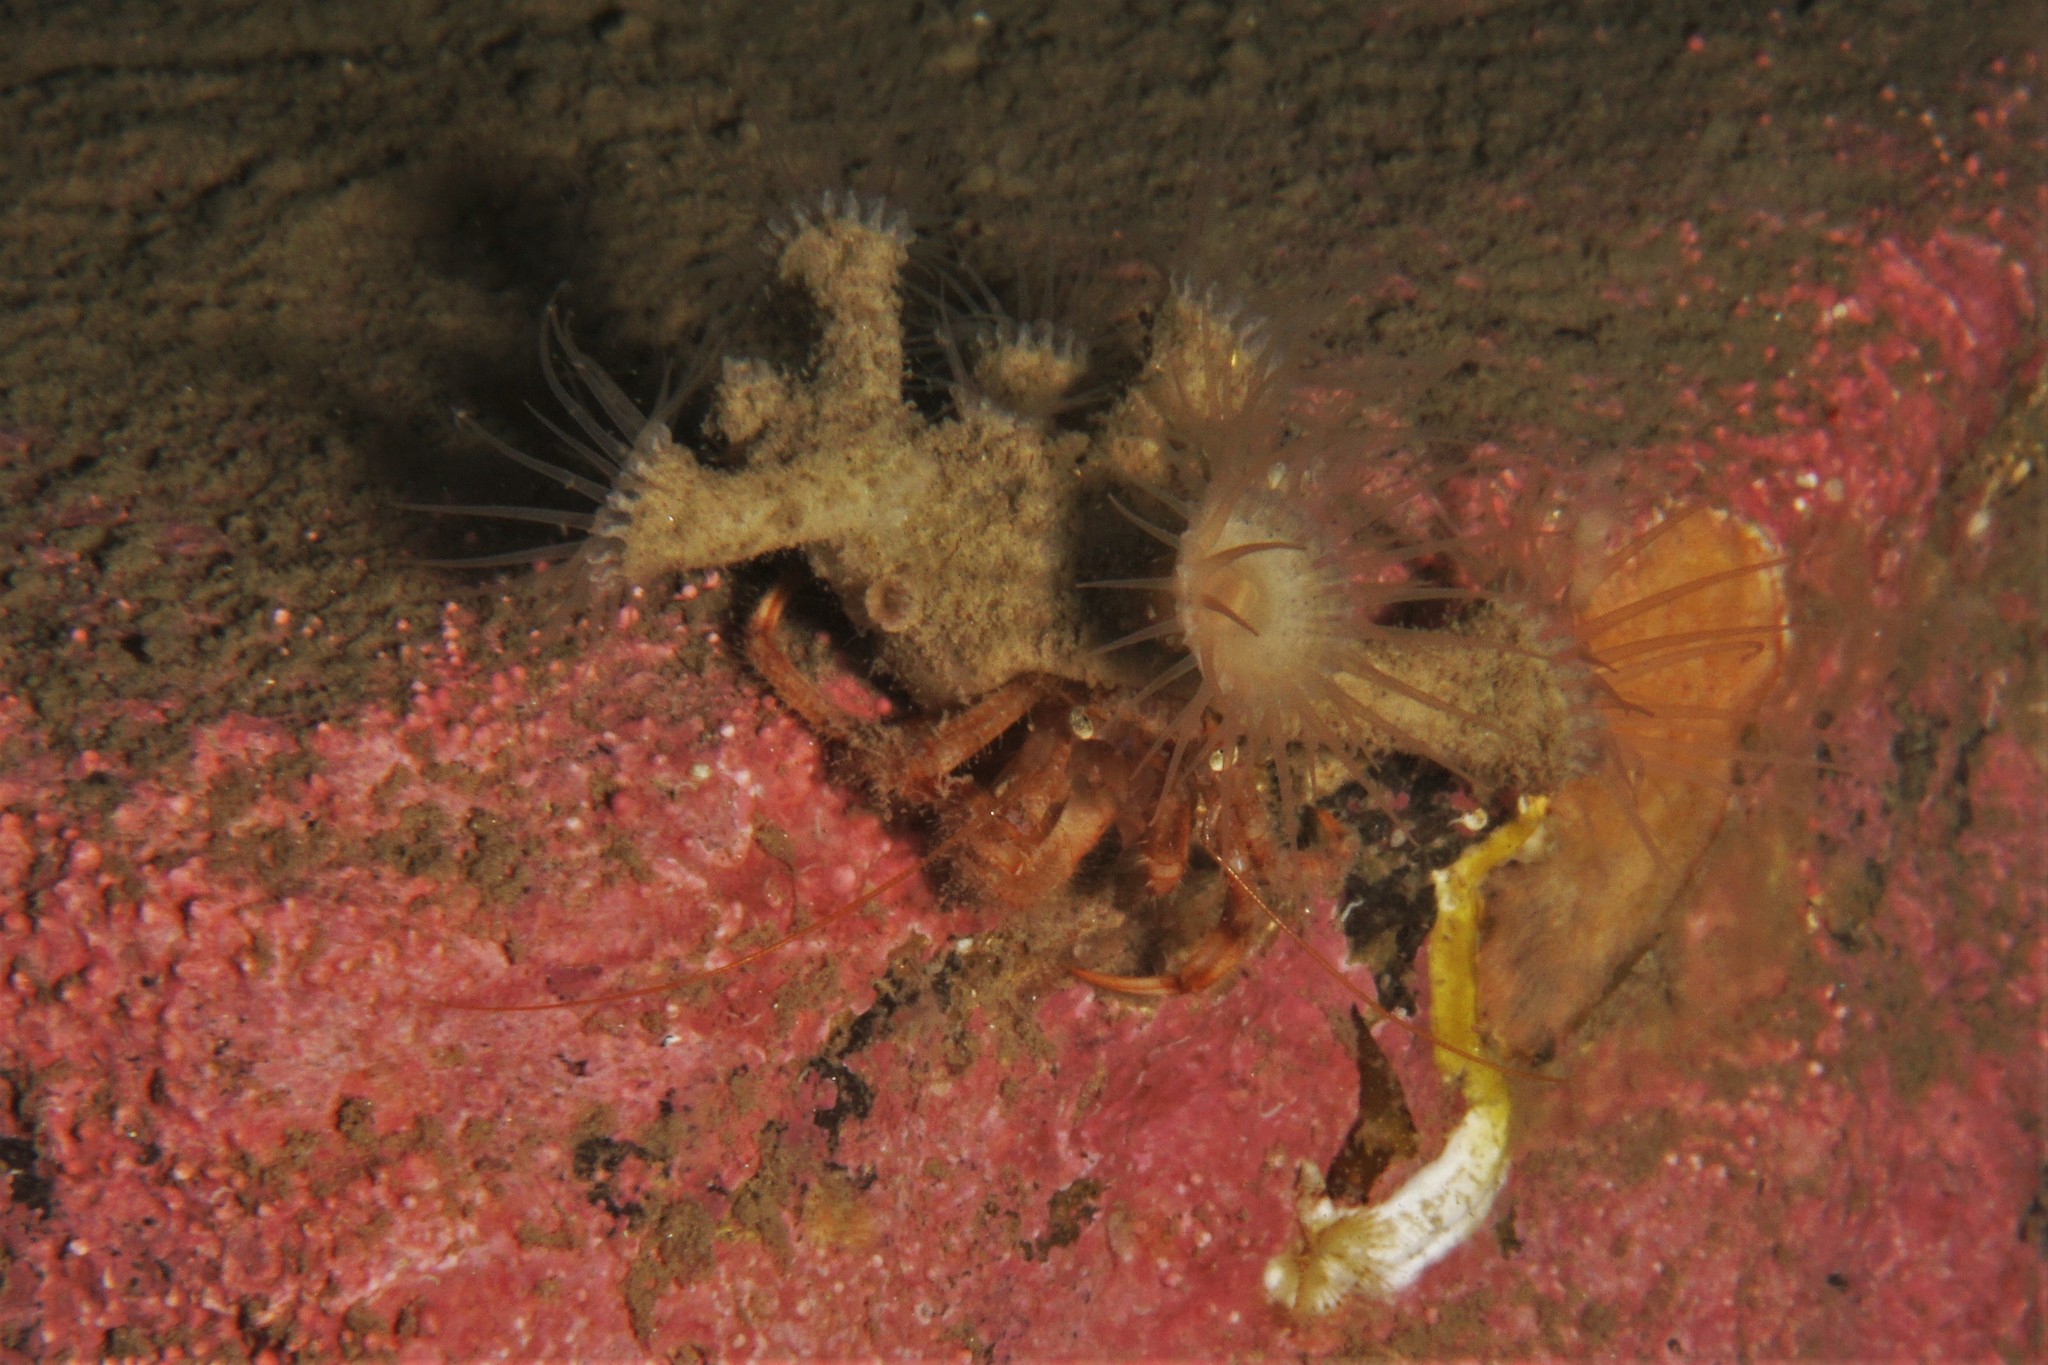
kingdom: Animalia
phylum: Cnidaria
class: Anthozoa
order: Zoantharia
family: Epizoanthidae
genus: Epizoanthus
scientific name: Epizoanthus papillosus
